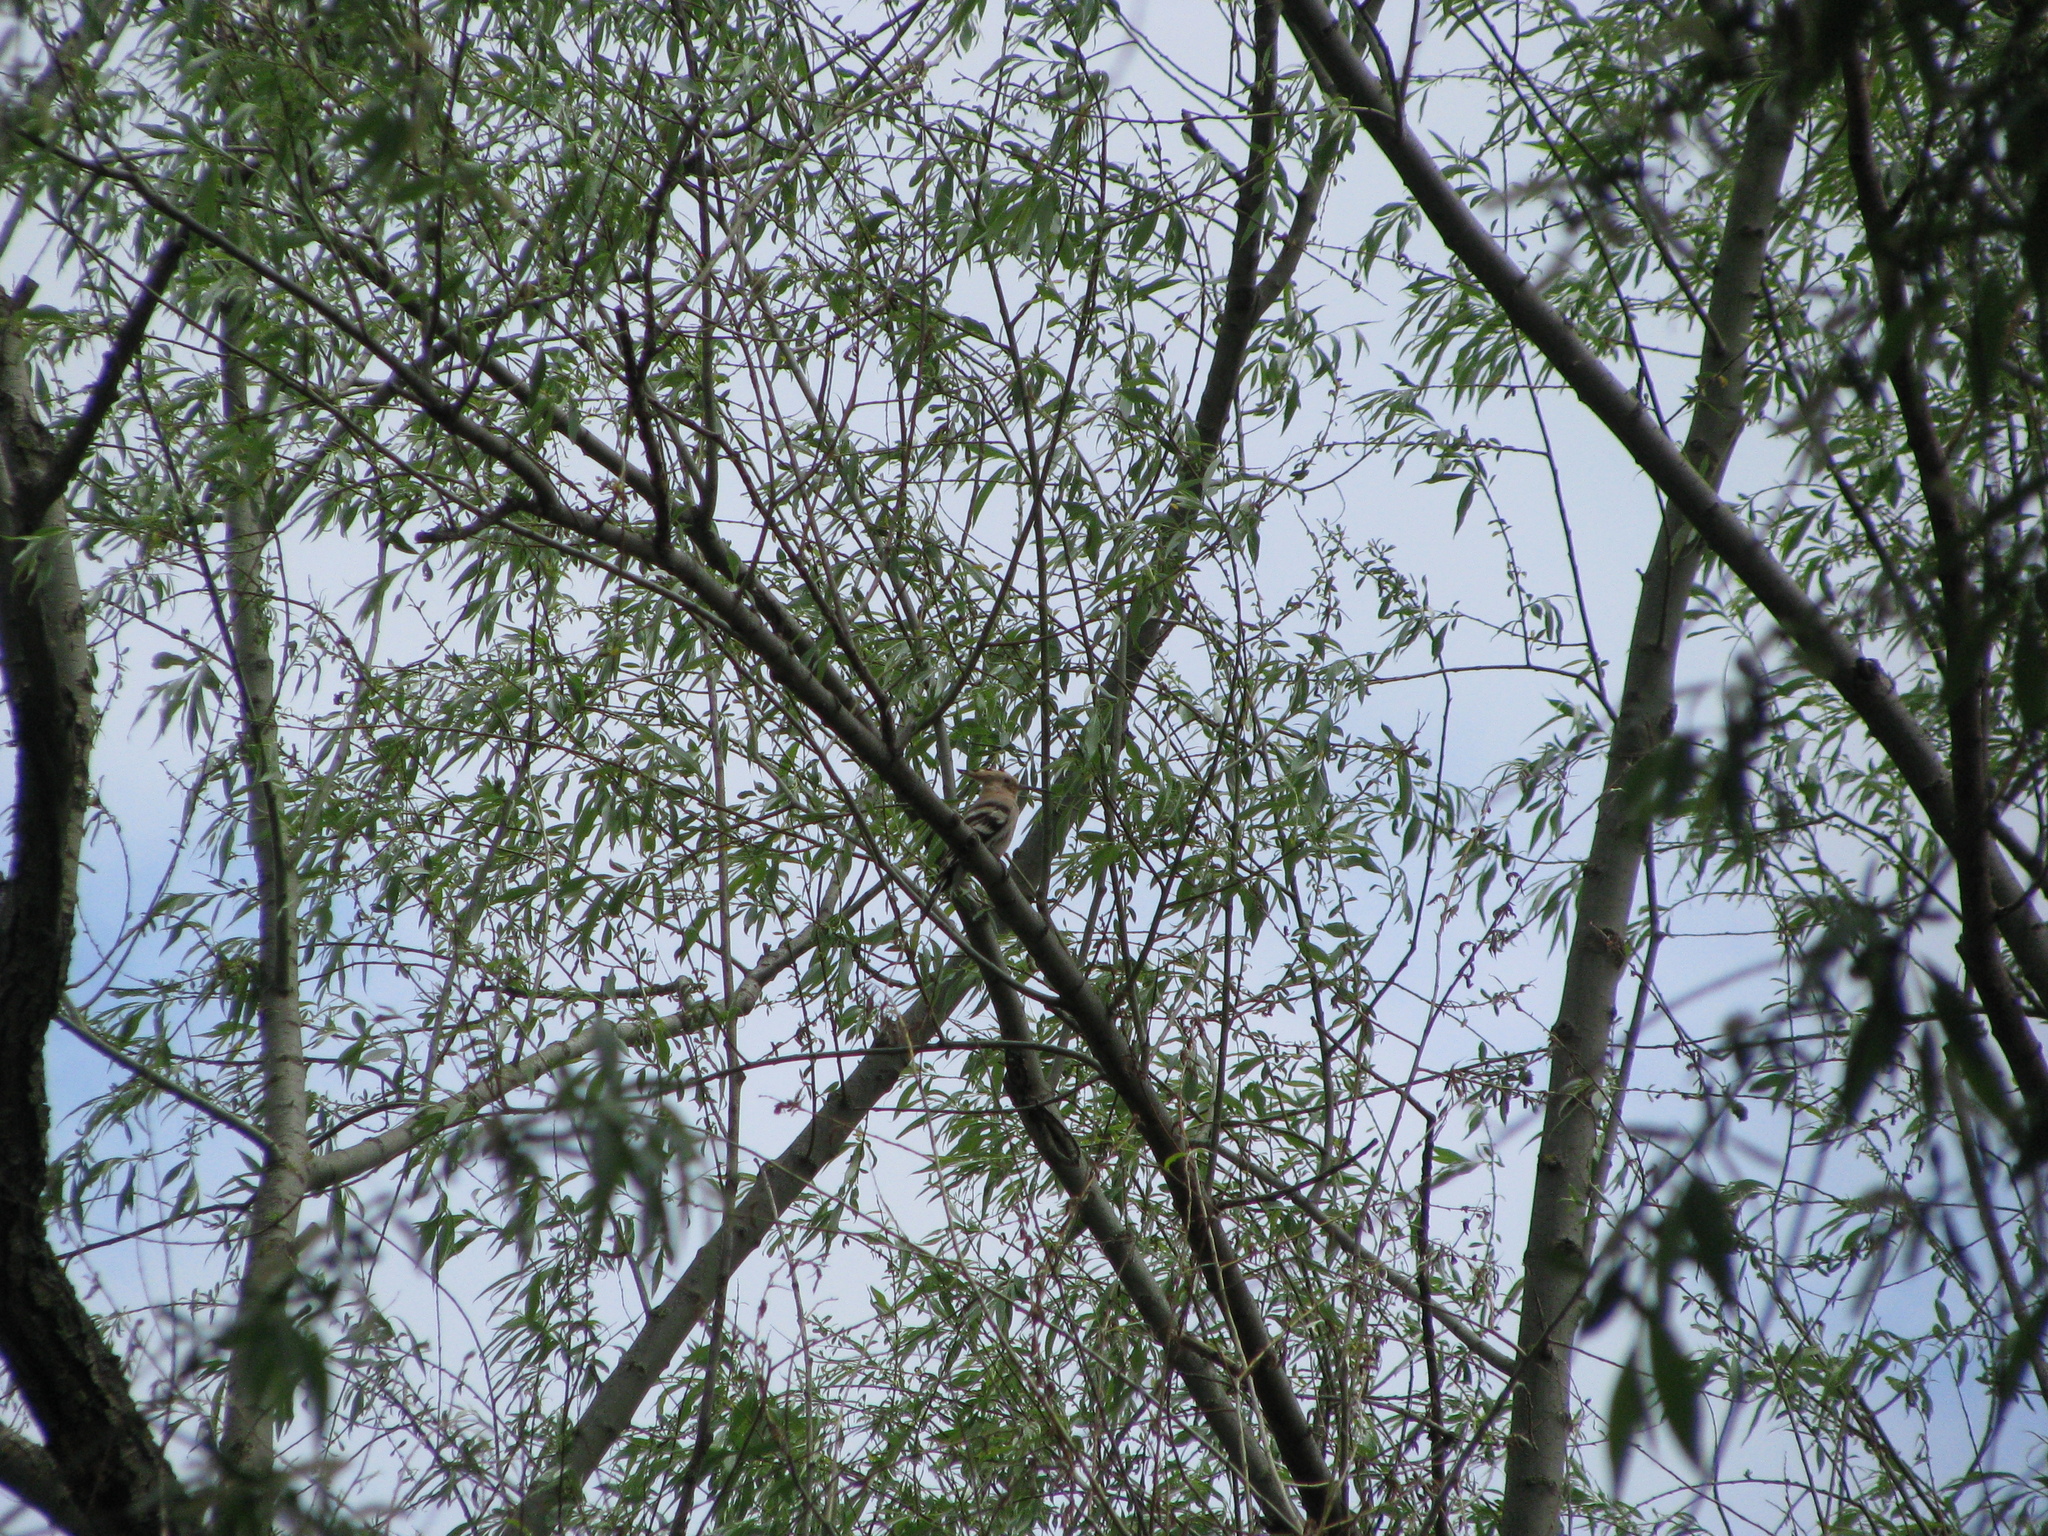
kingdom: Animalia
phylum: Chordata
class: Aves
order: Bucerotiformes
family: Upupidae
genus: Upupa
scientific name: Upupa epops
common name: Eurasian hoopoe
